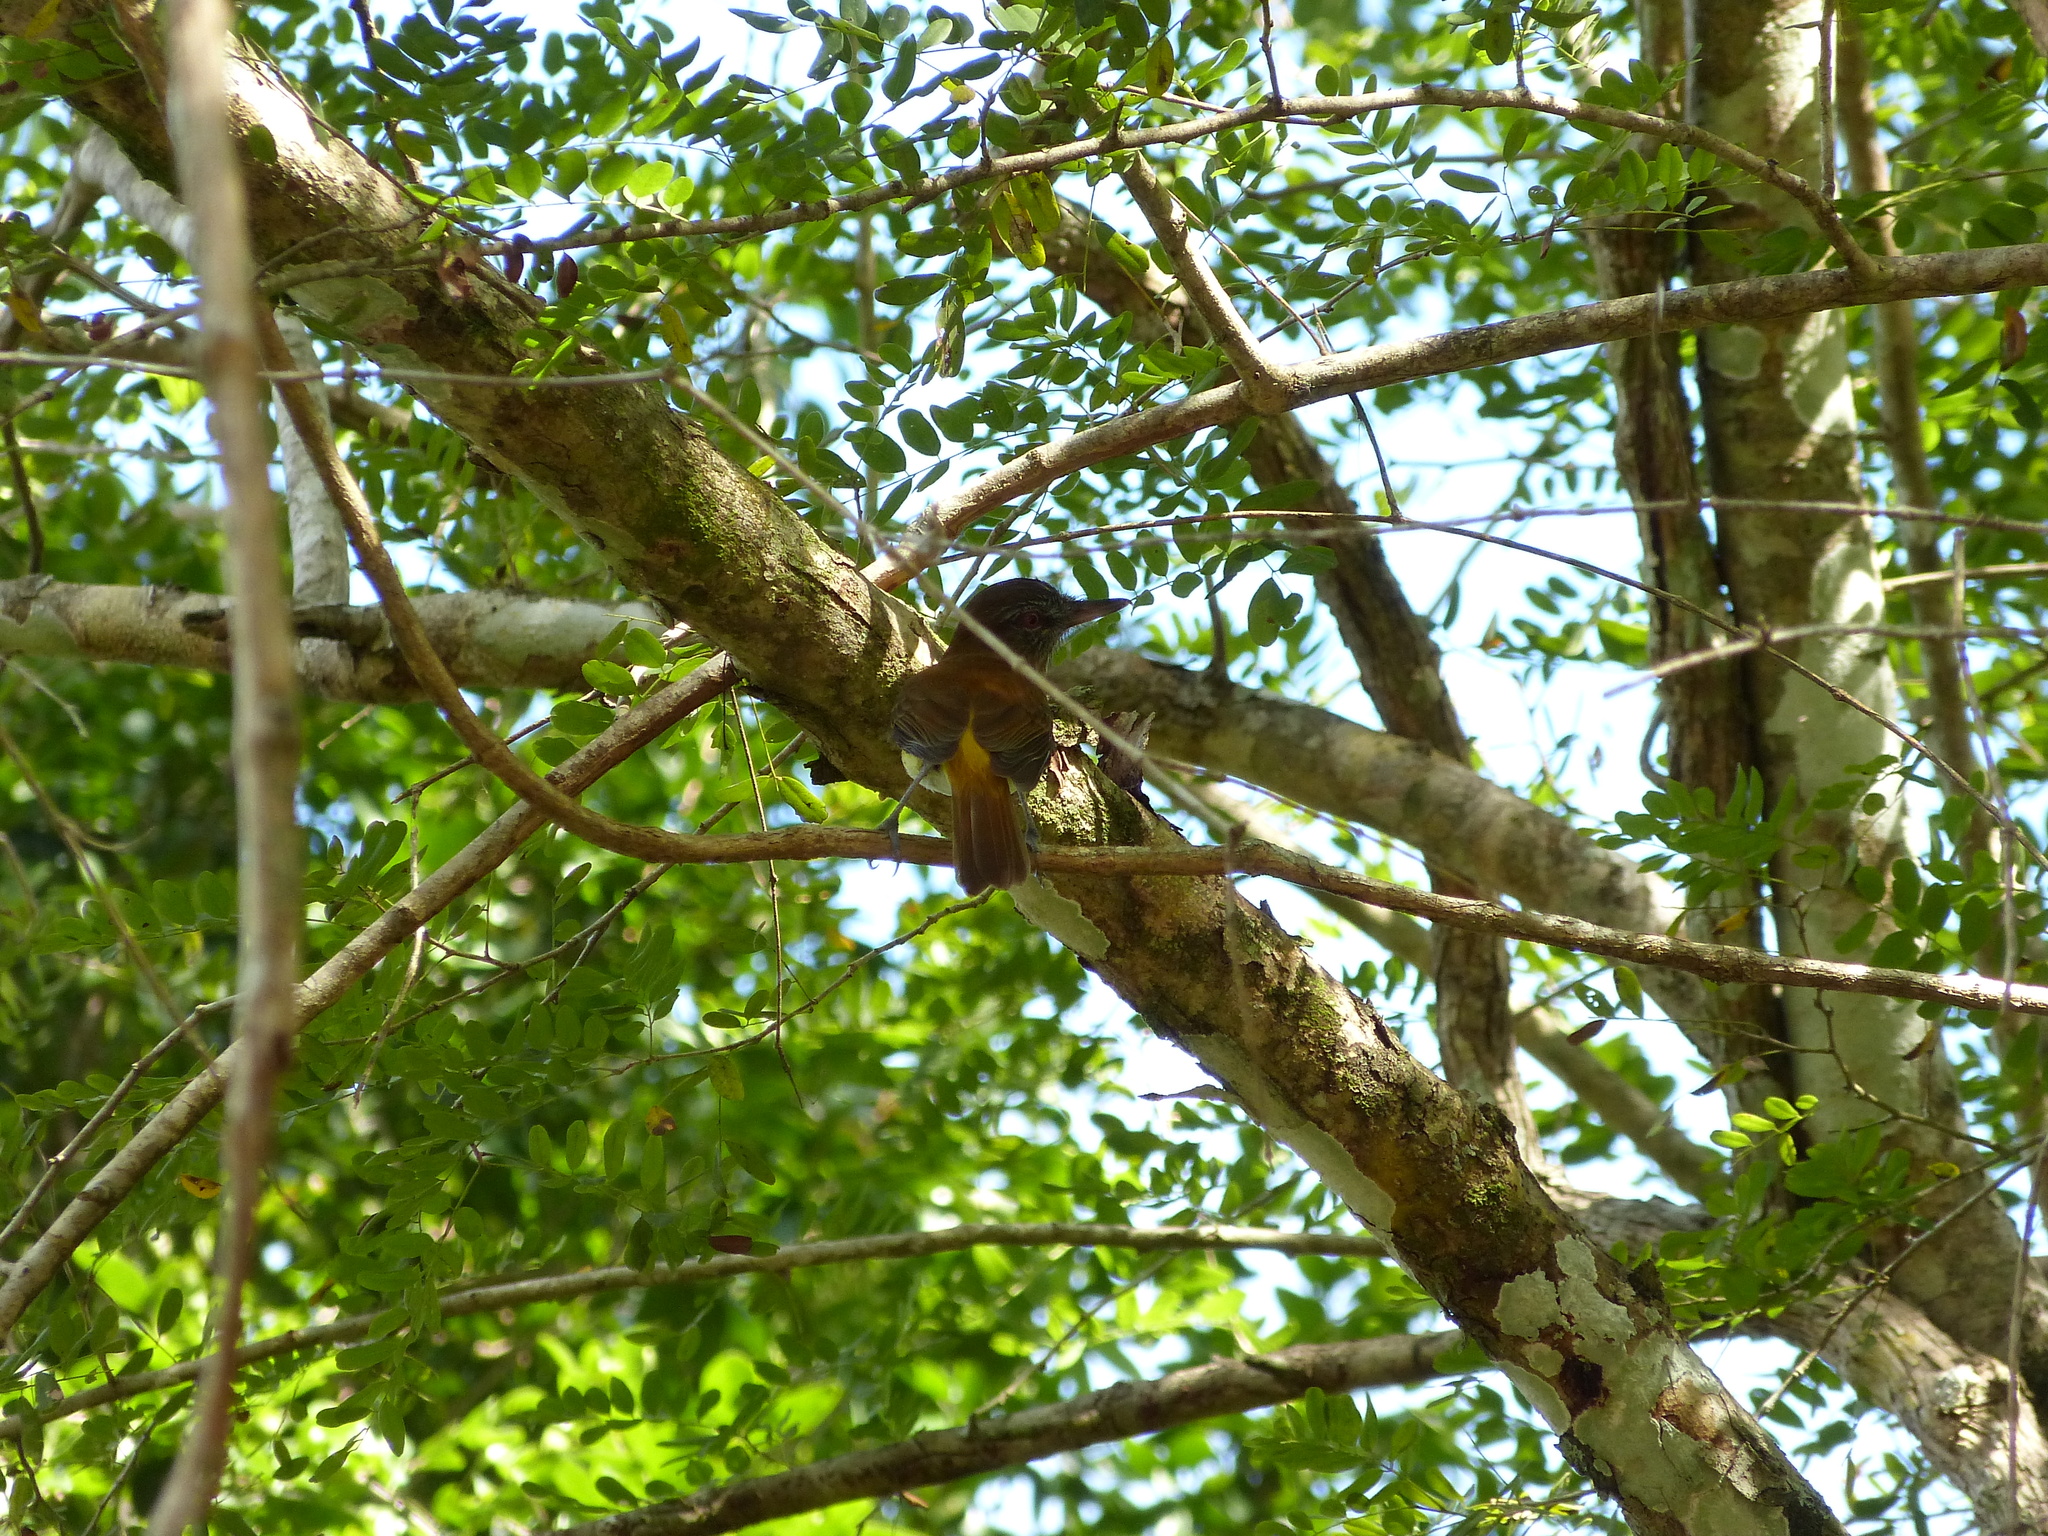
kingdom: Animalia
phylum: Chordata
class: Aves
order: Passeriformes
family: Tyrannidae
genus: Attila
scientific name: Attila spadiceus
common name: Bright-rumped attila
